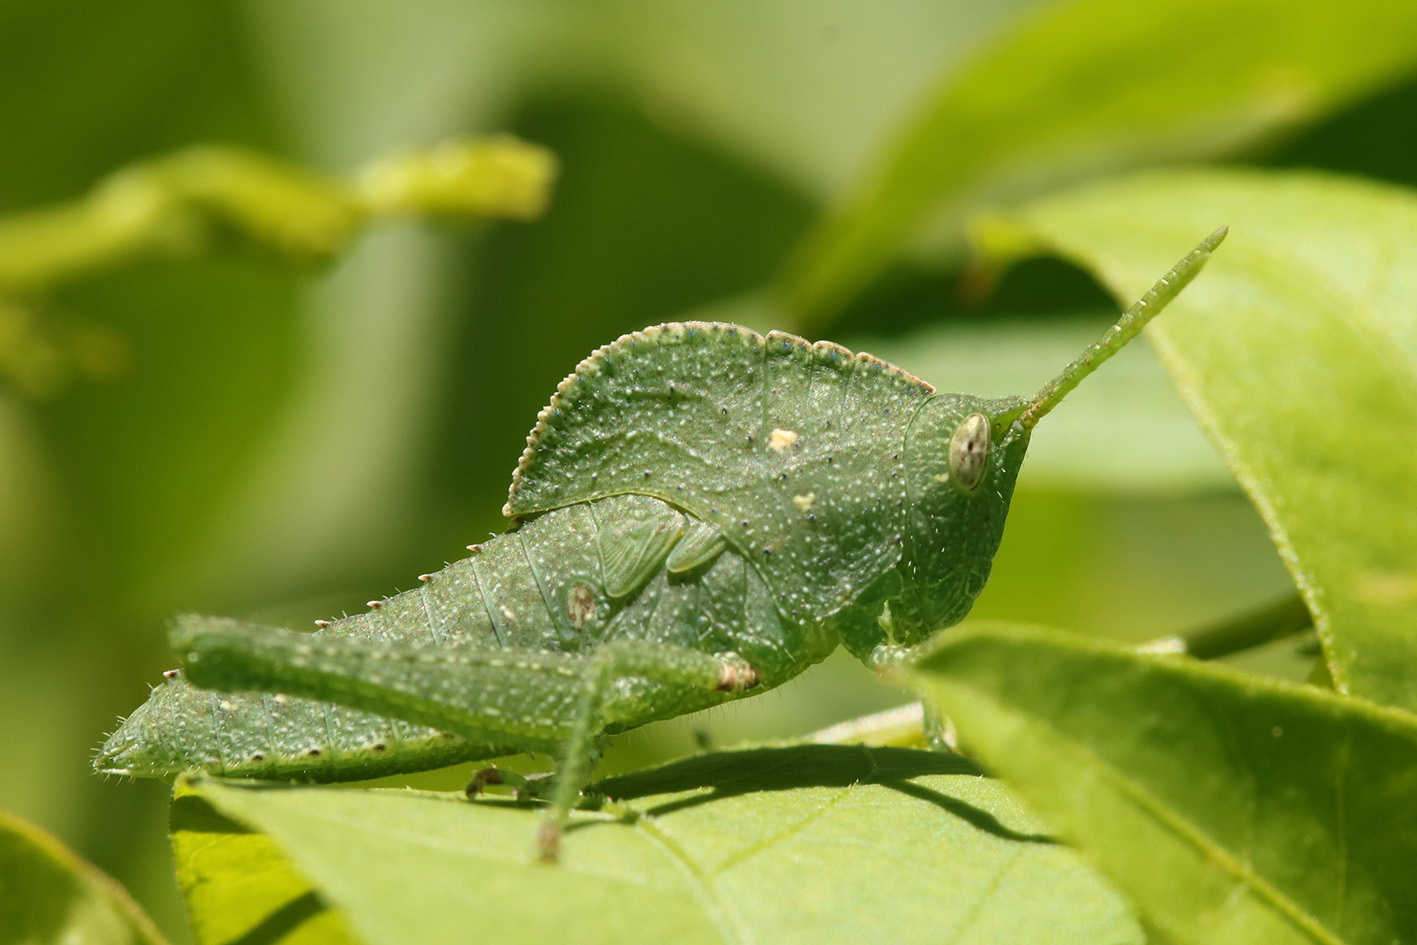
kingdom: Animalia
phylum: Arthropoda
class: Insecta
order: Orthoptera
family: Romaleidae
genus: Xyleus
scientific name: Xyleus discoideus
